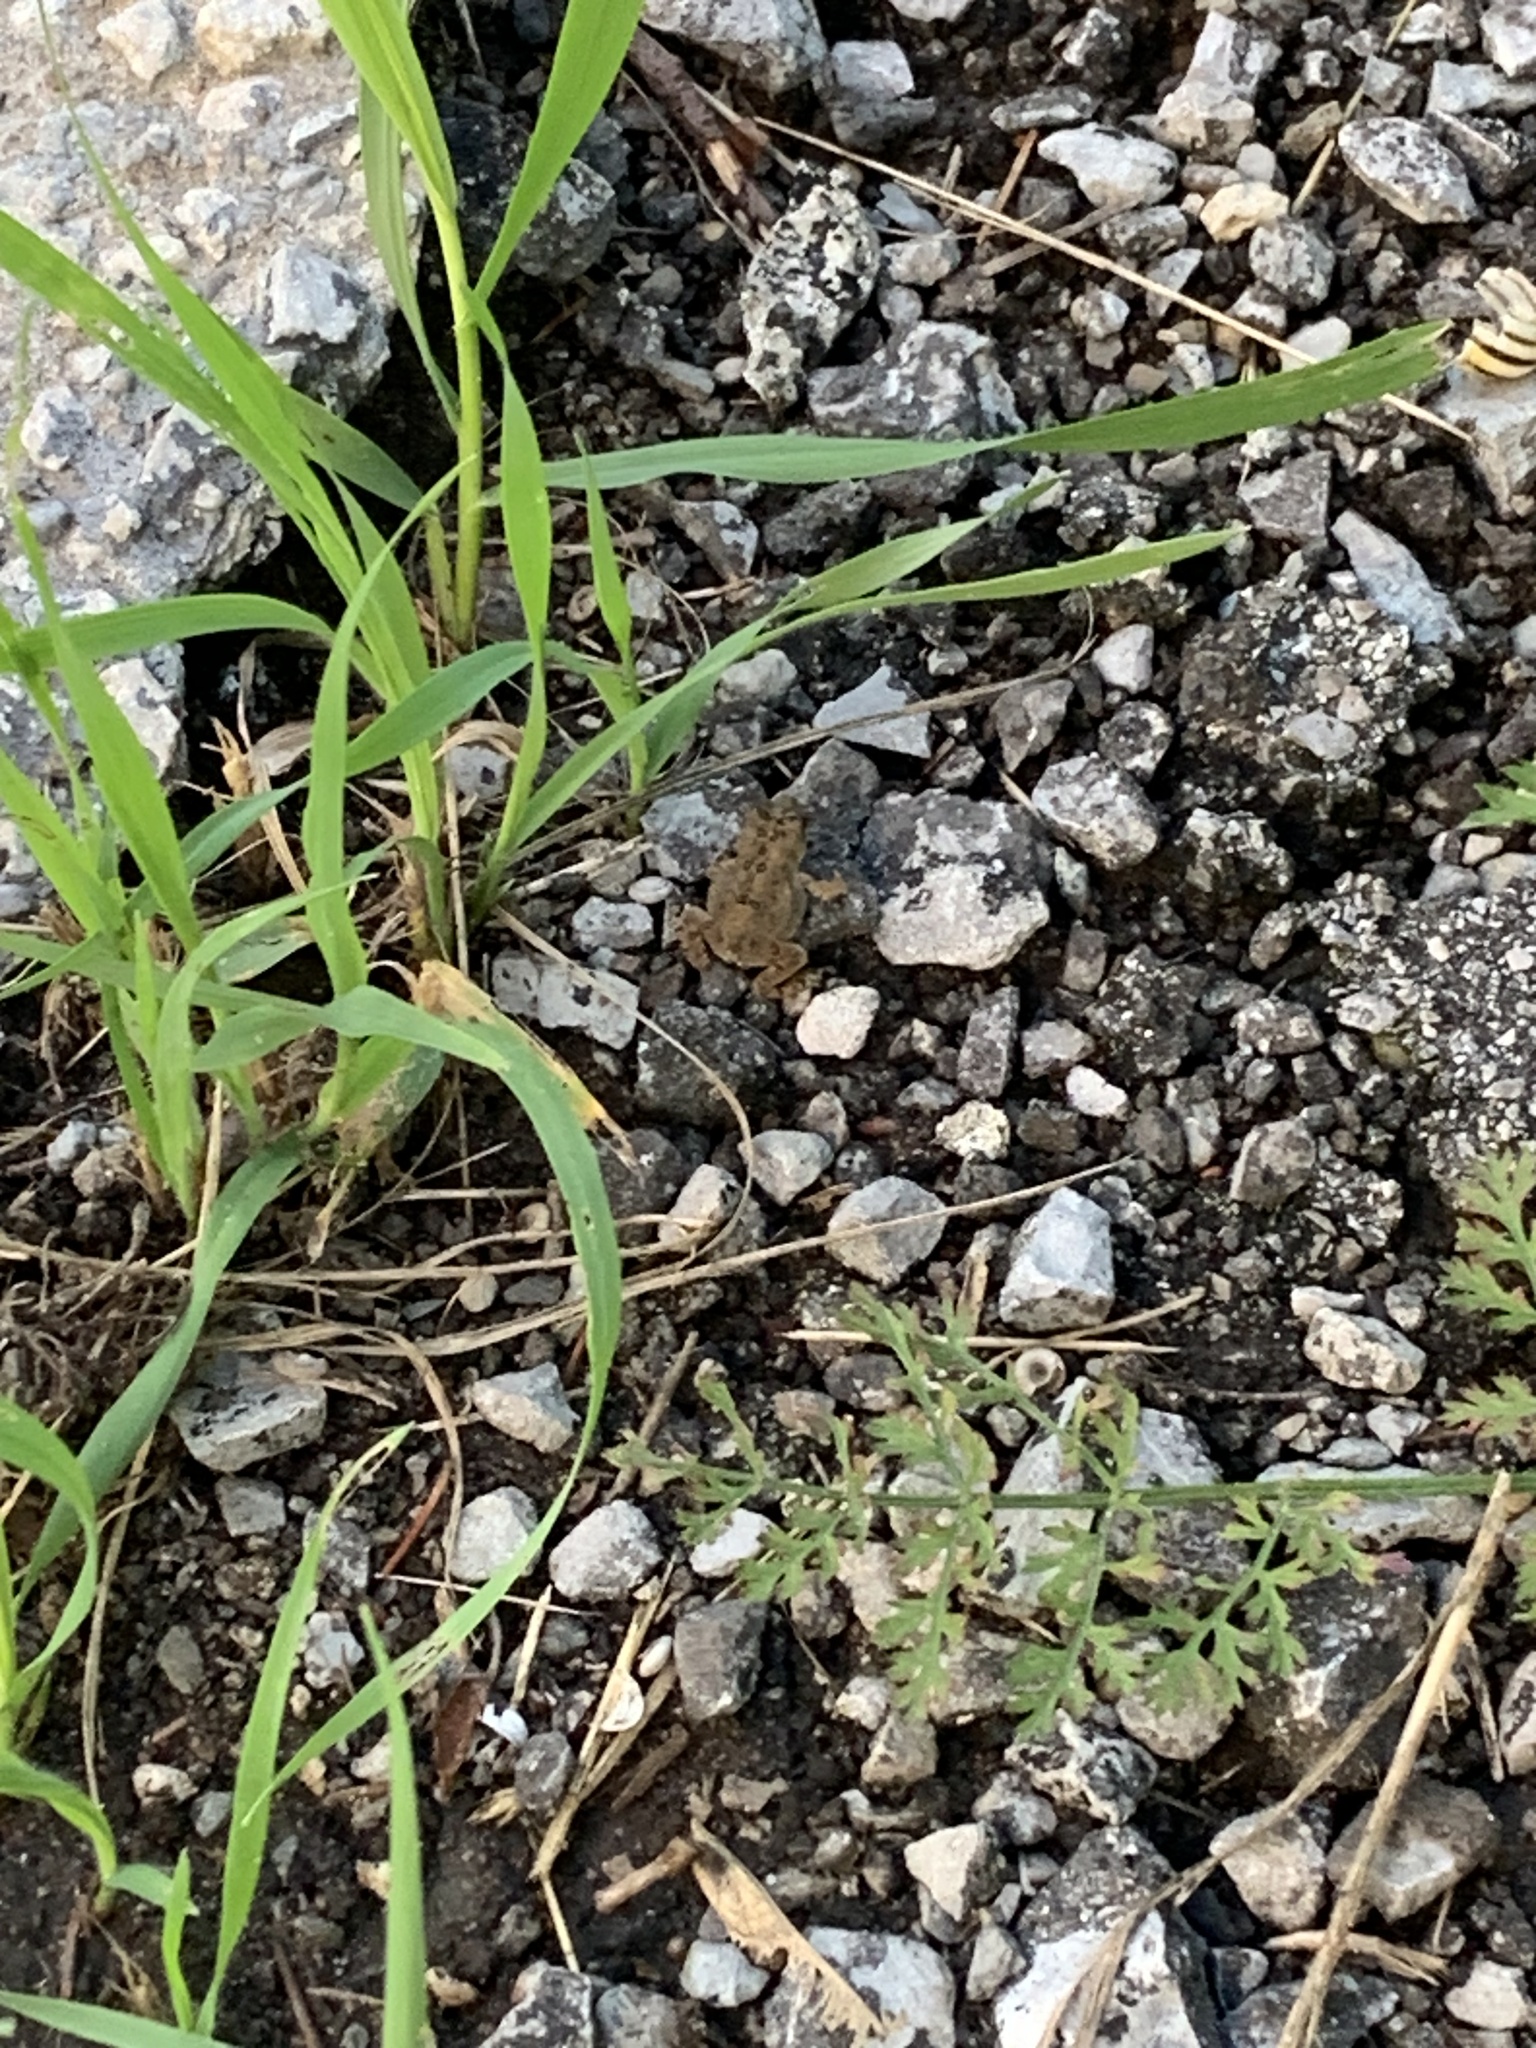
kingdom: Animalia
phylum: Chordata
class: Amphibia
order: Anura
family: Bufonidae
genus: Anaxyrus
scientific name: Anaxyrus americanus
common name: American toad
